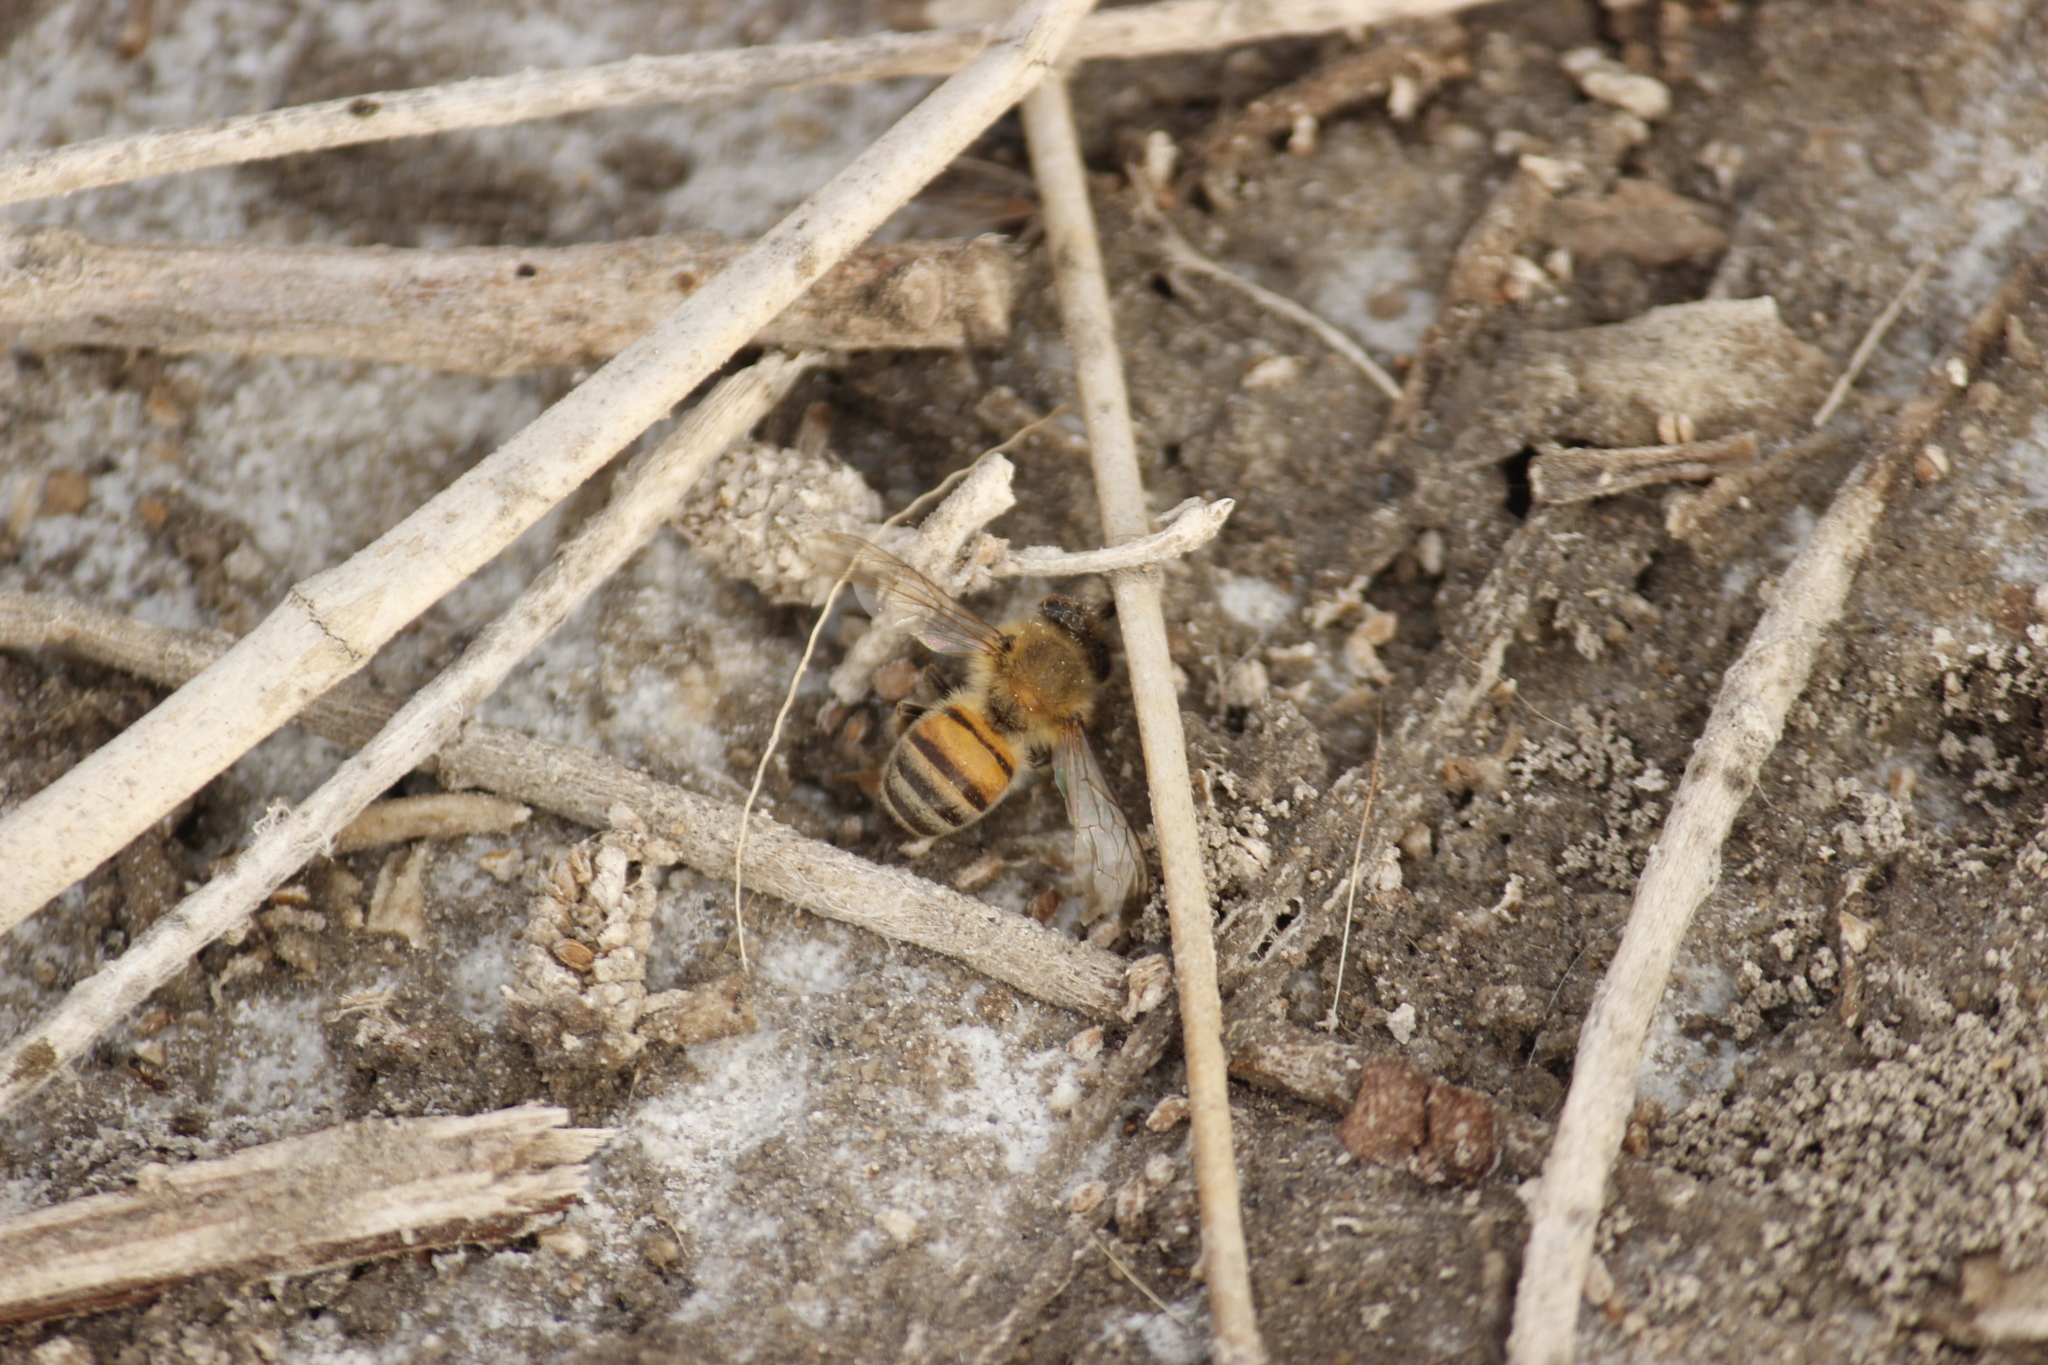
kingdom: Animalia
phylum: Arthropoda
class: Insecta
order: Hymenoptera
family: Apidae
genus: Apis
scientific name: Apis mellifera
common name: Honey bee
